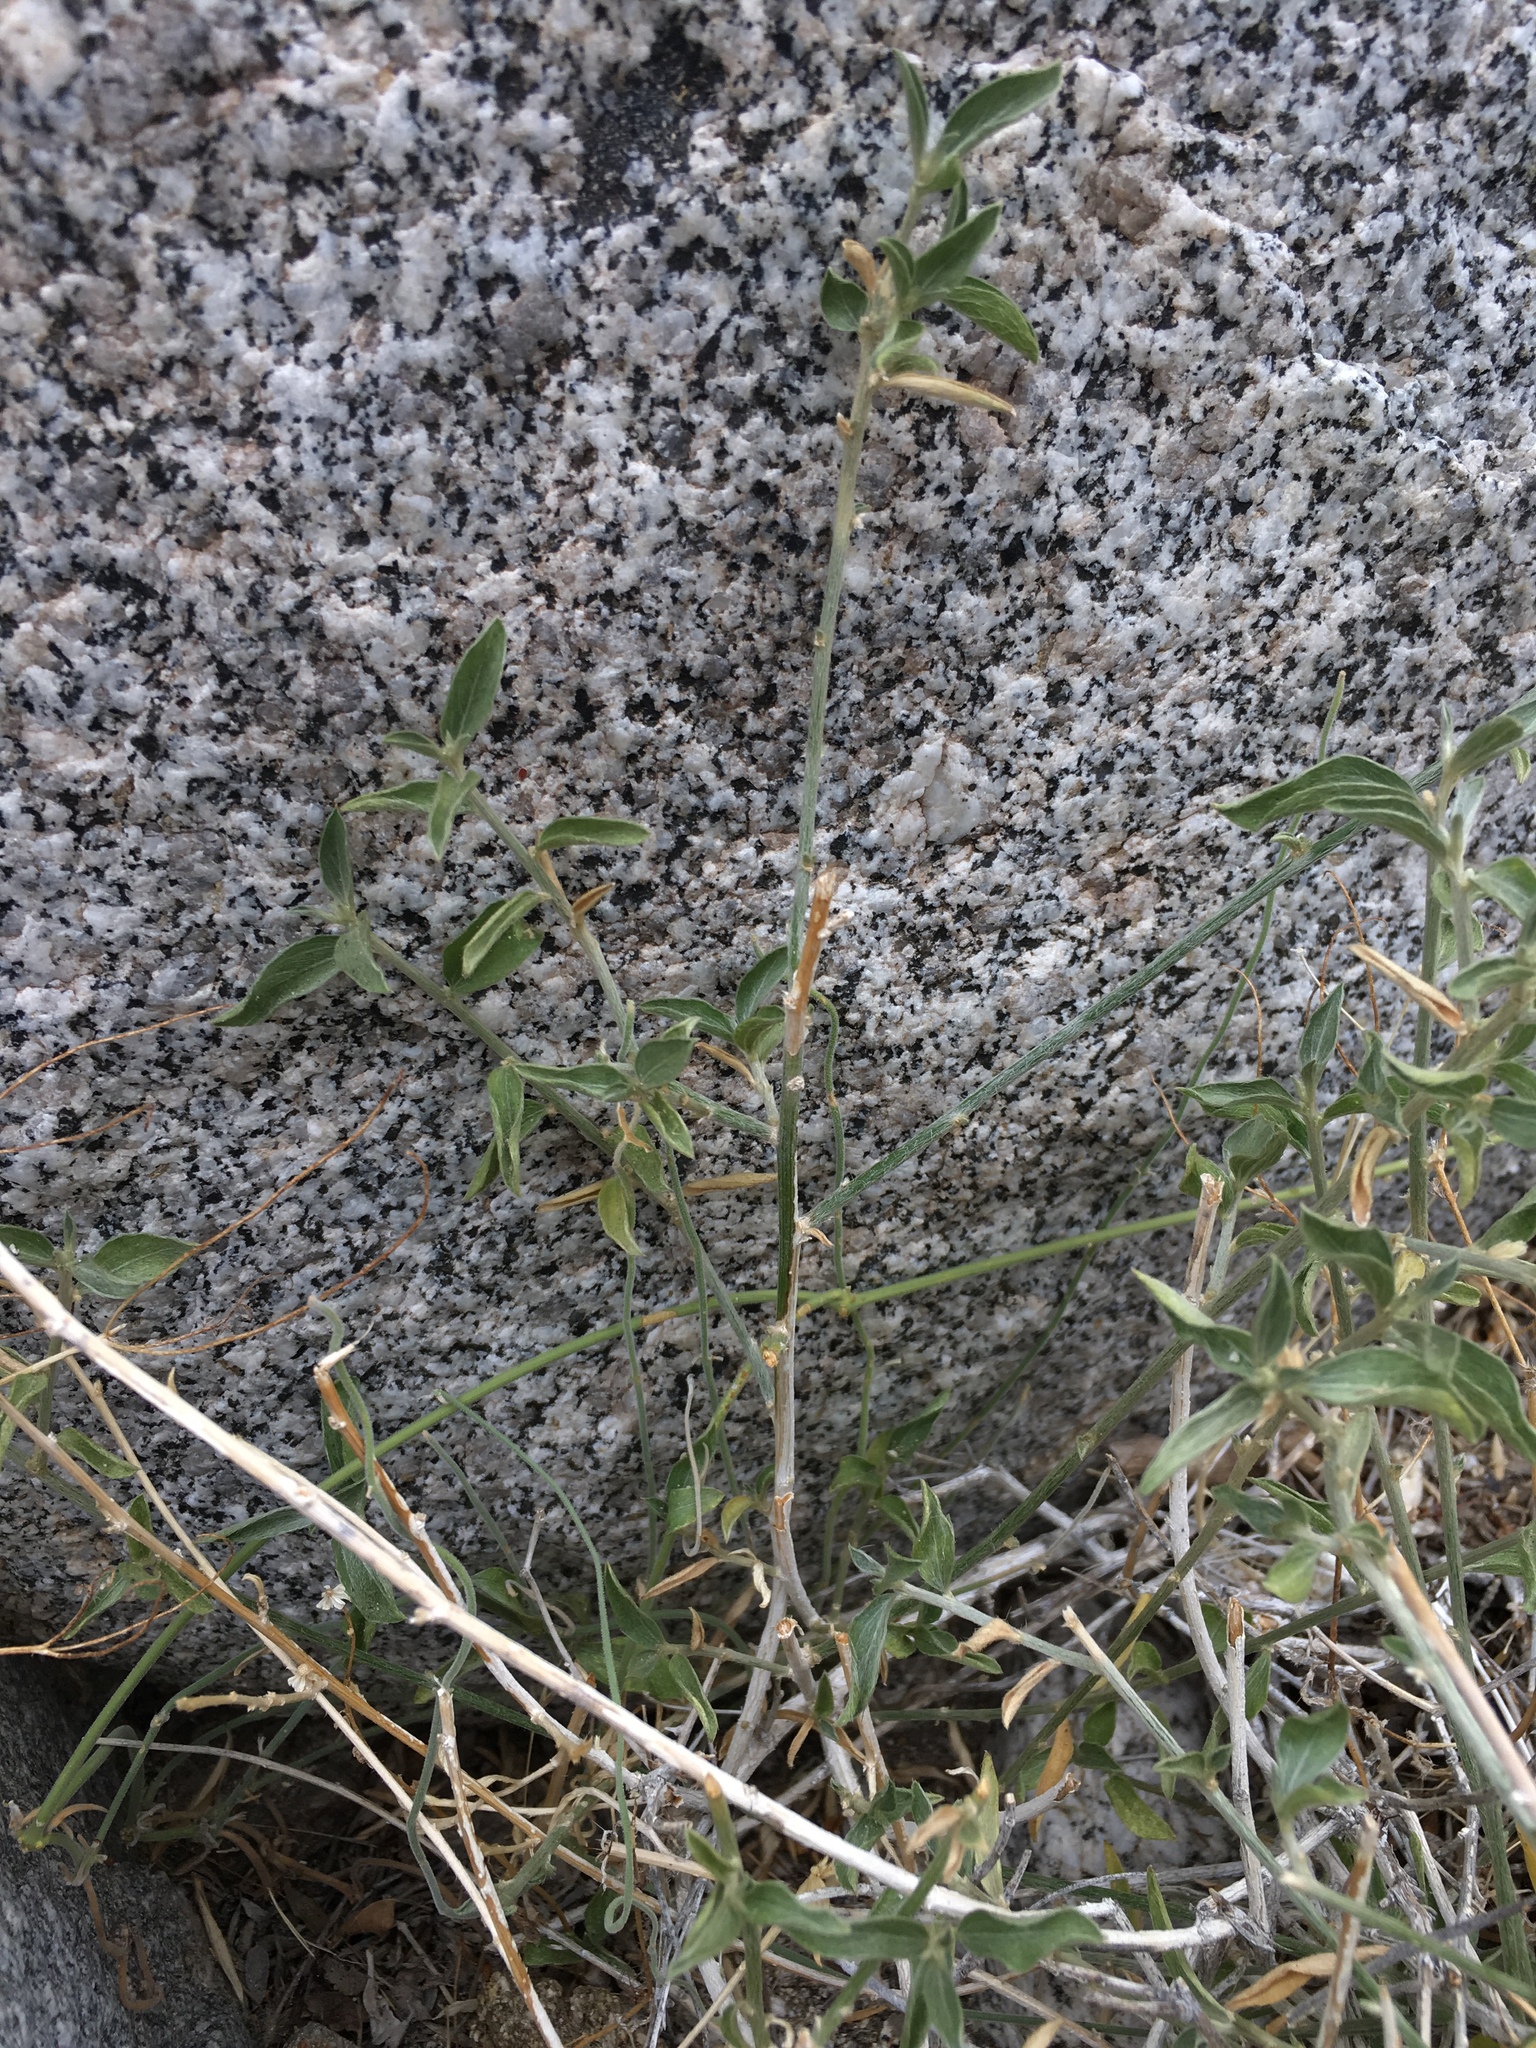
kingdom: Plantae
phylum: Tracheophyta
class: Magnoliopsida
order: Malpighiales
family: Euphorbiaceae
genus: Ditaxis
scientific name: Ditaxis lanceolata
